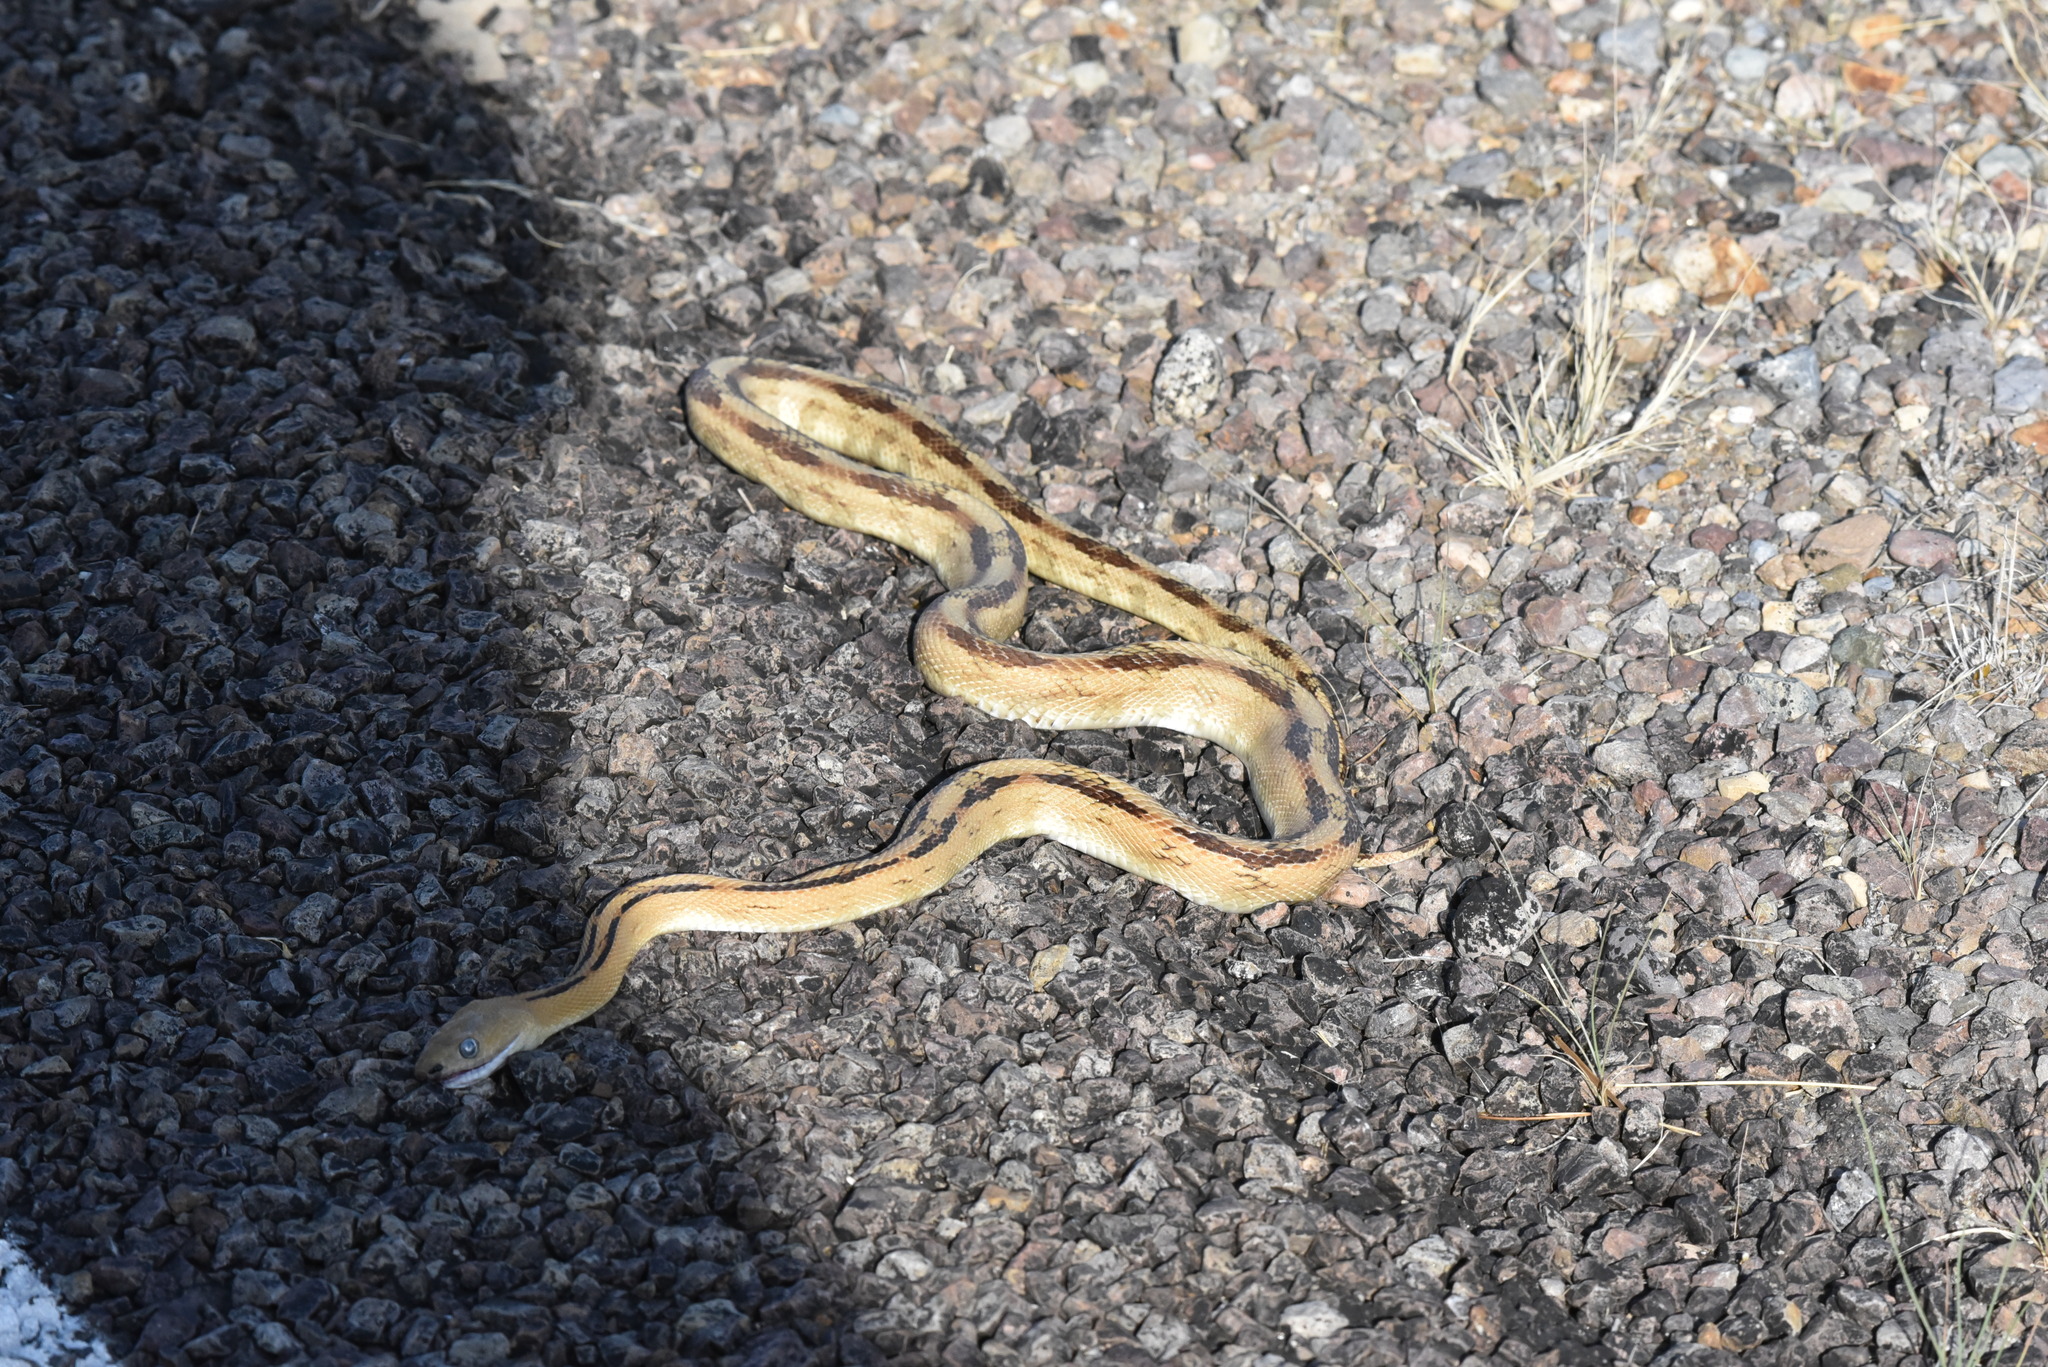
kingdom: Animalia
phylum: Chordata
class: Squamata
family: Colubridae
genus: Bogertophis
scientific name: Bogertophis subocularis
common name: Trans-pecos rat snake
